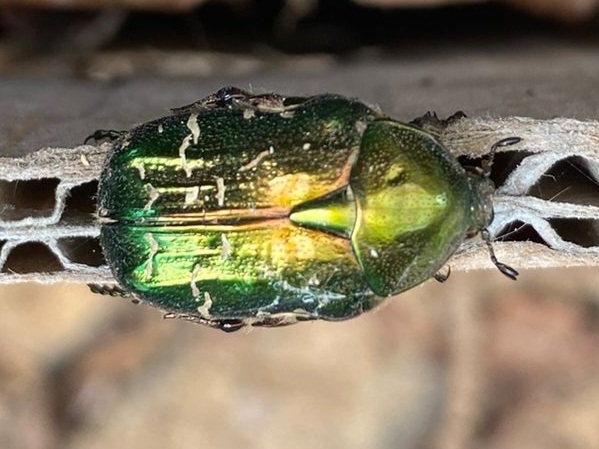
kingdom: Animalia
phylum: Arthropoda
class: Insecta
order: Coleoptera
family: Scarabaeidae
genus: Cetonia
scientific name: Cetonia aurata
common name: Rose chafer
